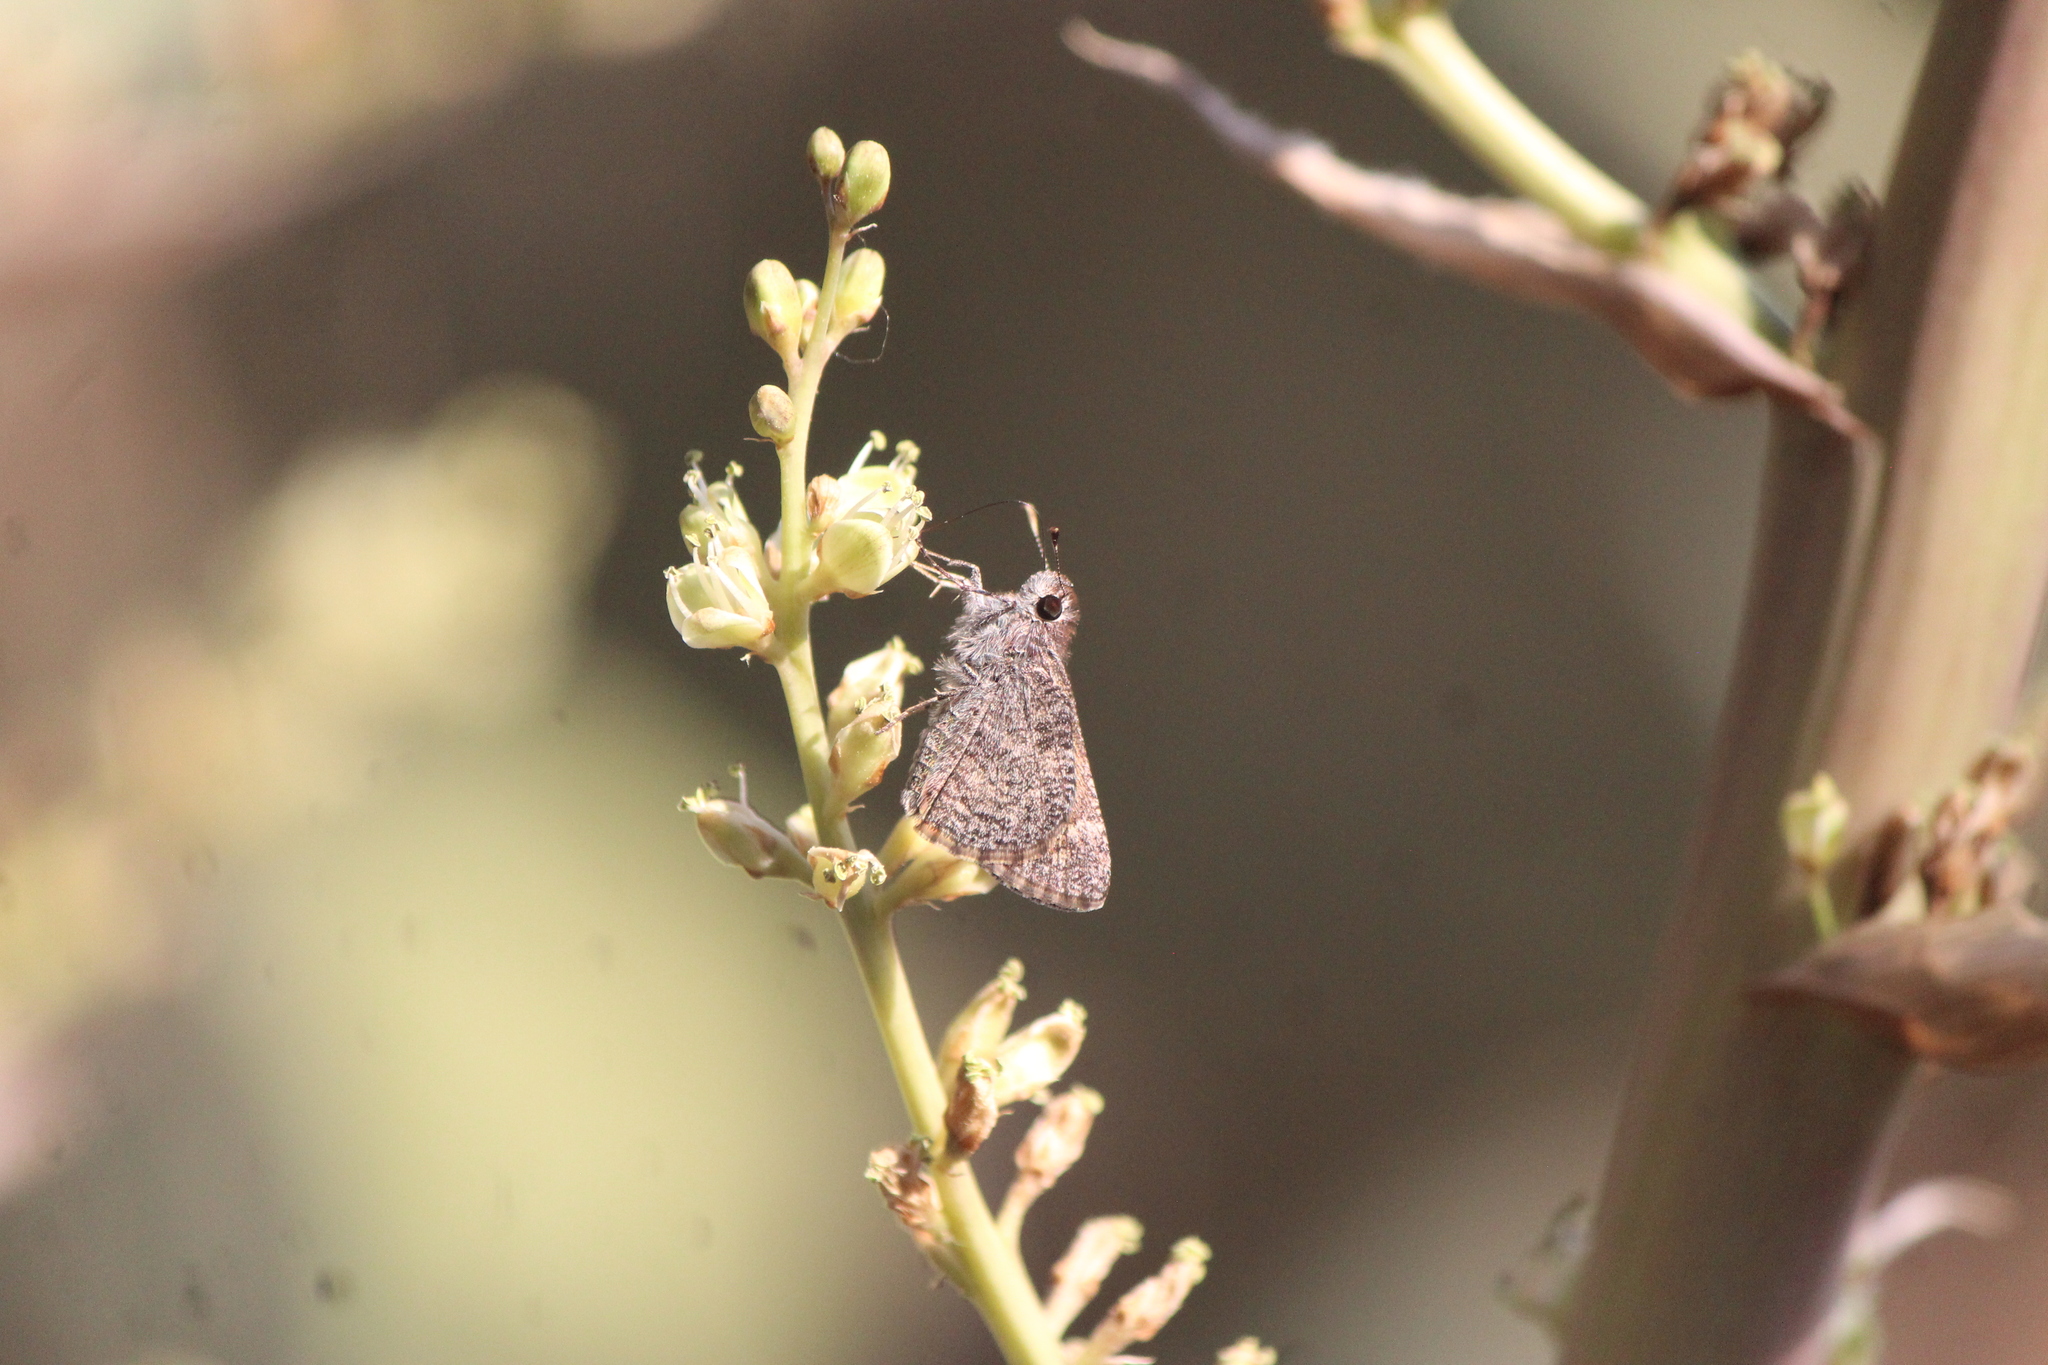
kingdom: Animalia
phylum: Arthropoda
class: Insecta
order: Lepidoptera
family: Hesperiidae
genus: Mastor
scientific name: Mastor fluonia
